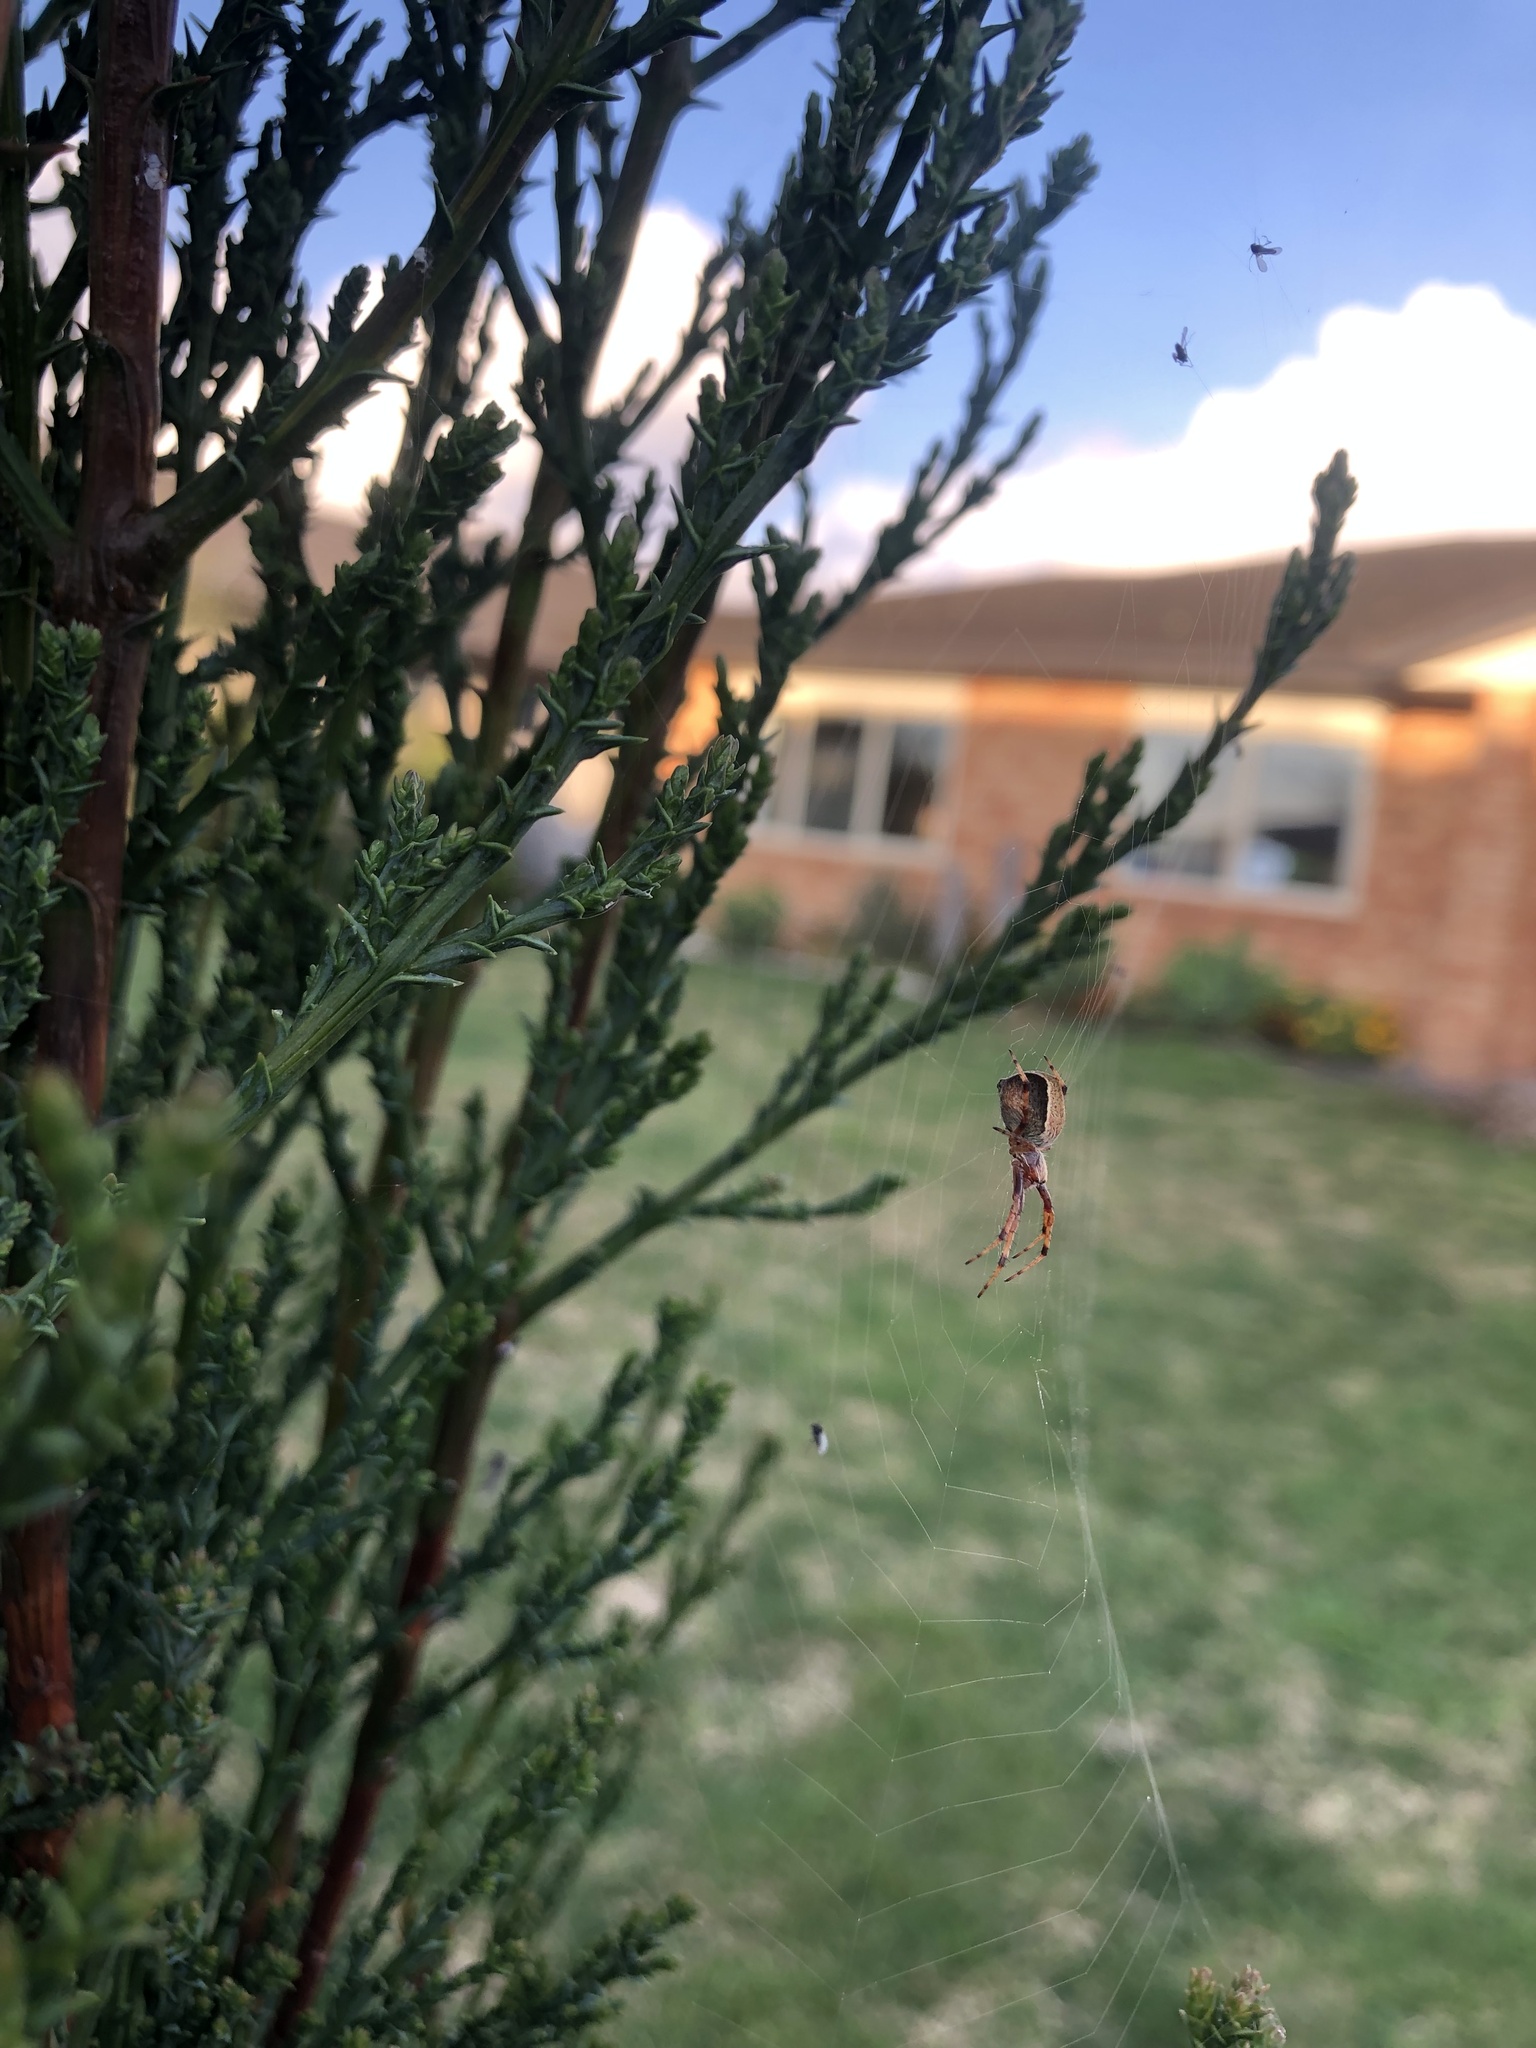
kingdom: Animalia
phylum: Arthropoda
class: Arachnida
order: Araneae
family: Araneidae
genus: Salsa
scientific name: Salsa fuliginata
